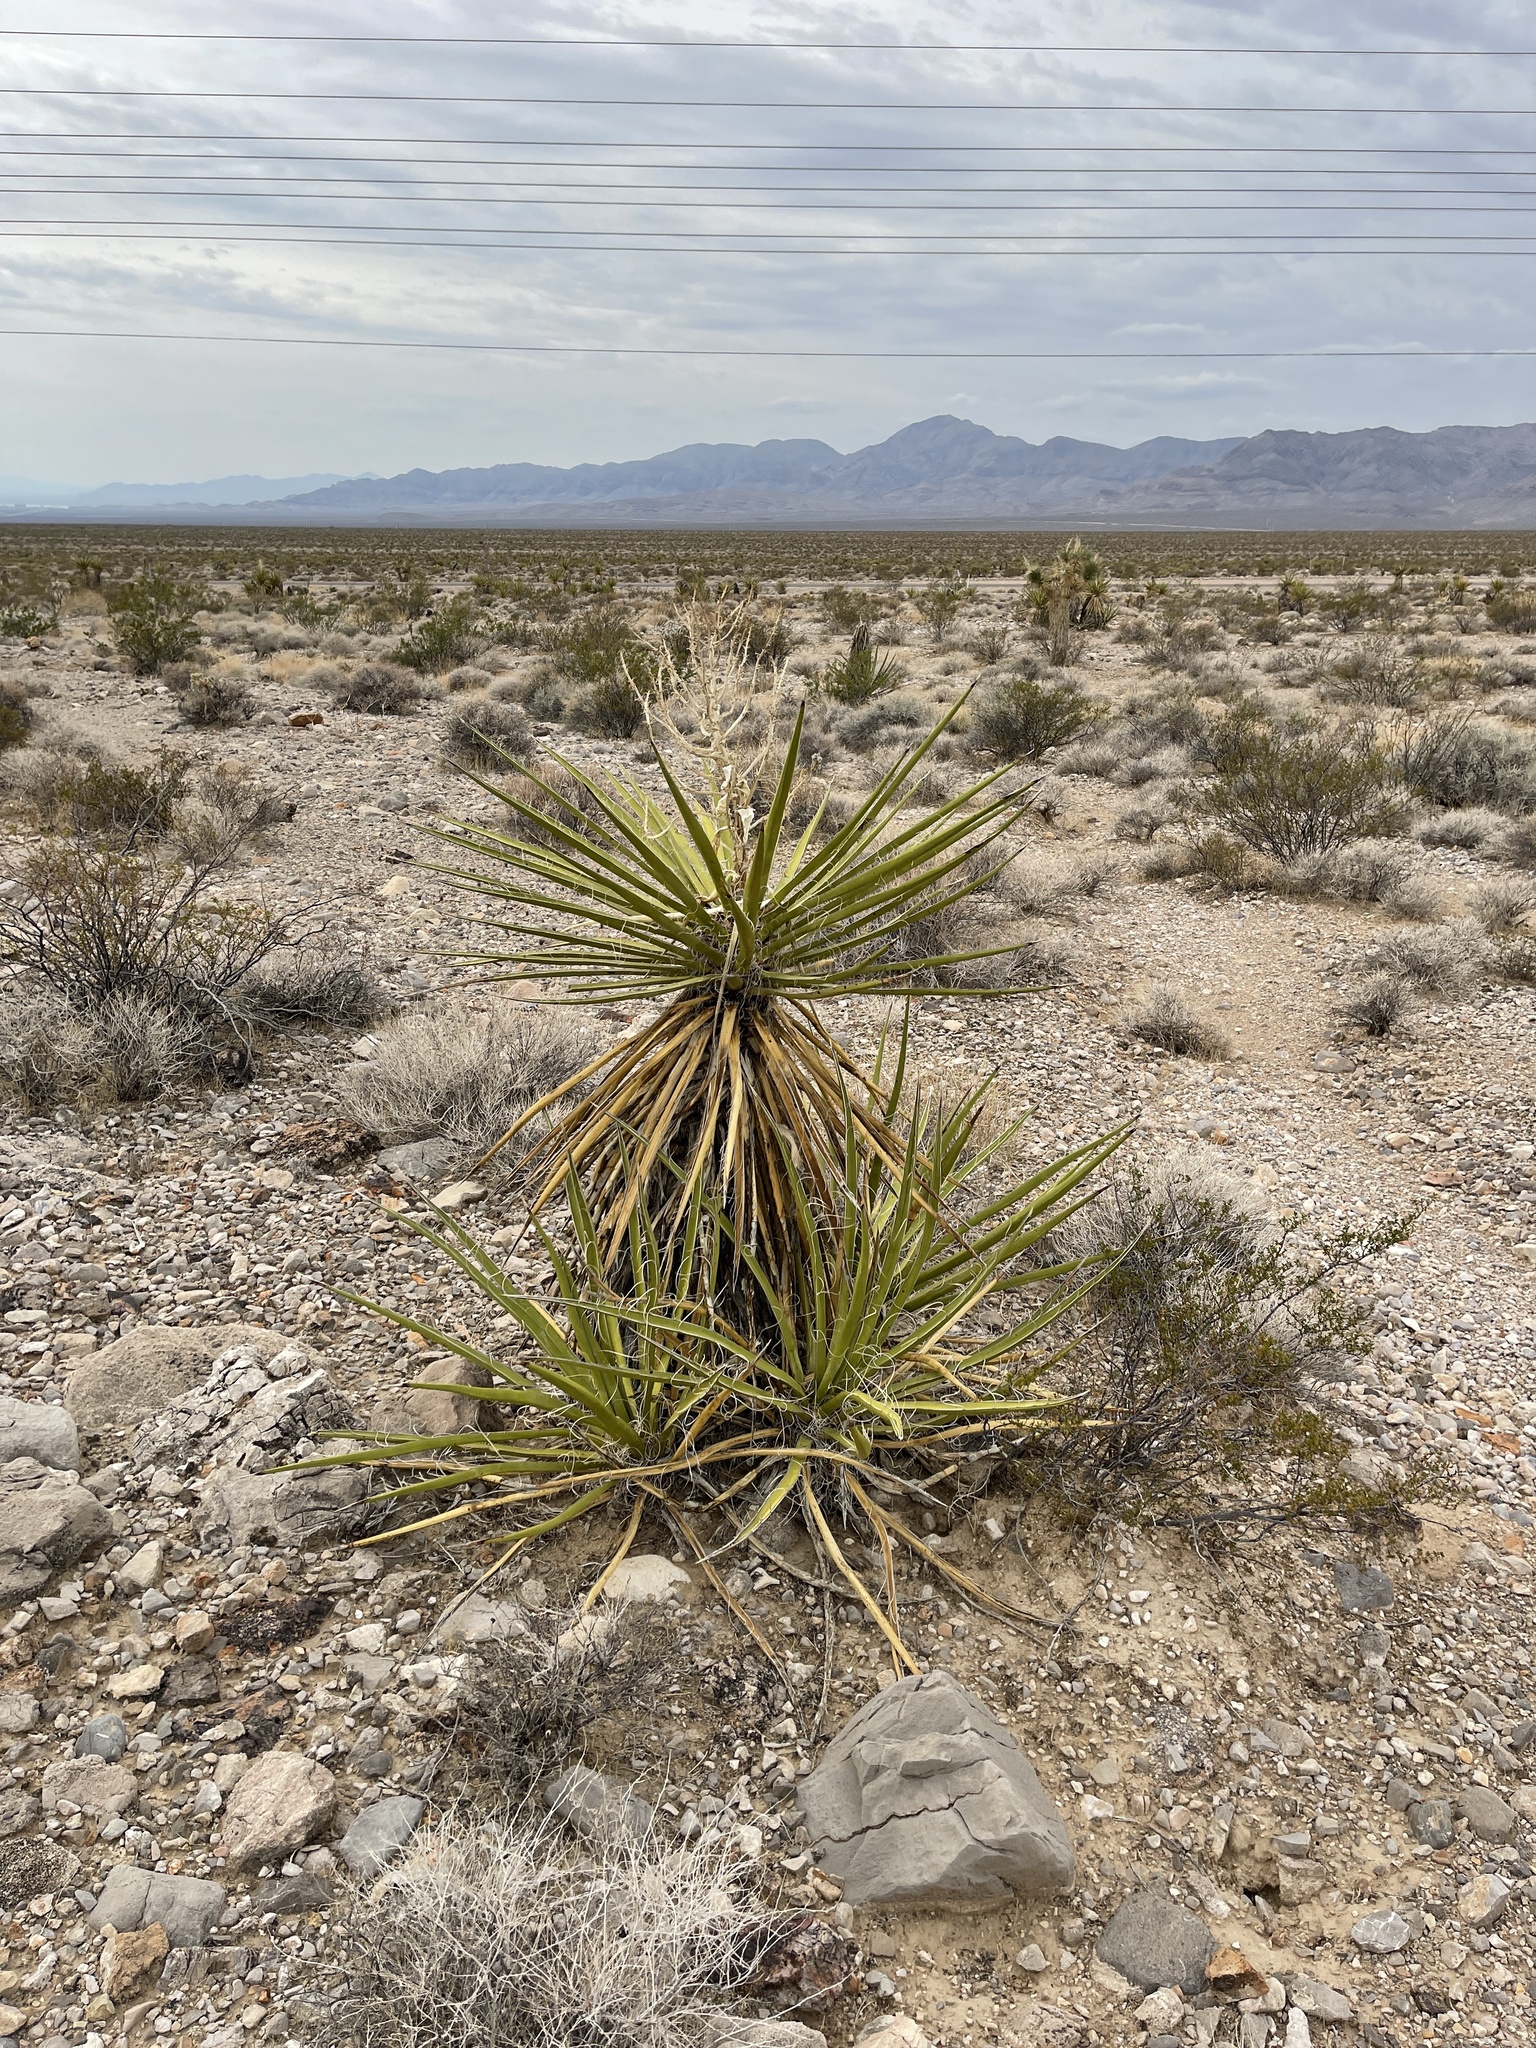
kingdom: Plantae
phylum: Tracheophyta
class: Liliopsida
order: Asparagales
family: Asparagaceae
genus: Yucca
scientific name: Yucca schidigera
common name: Mojave yucca
